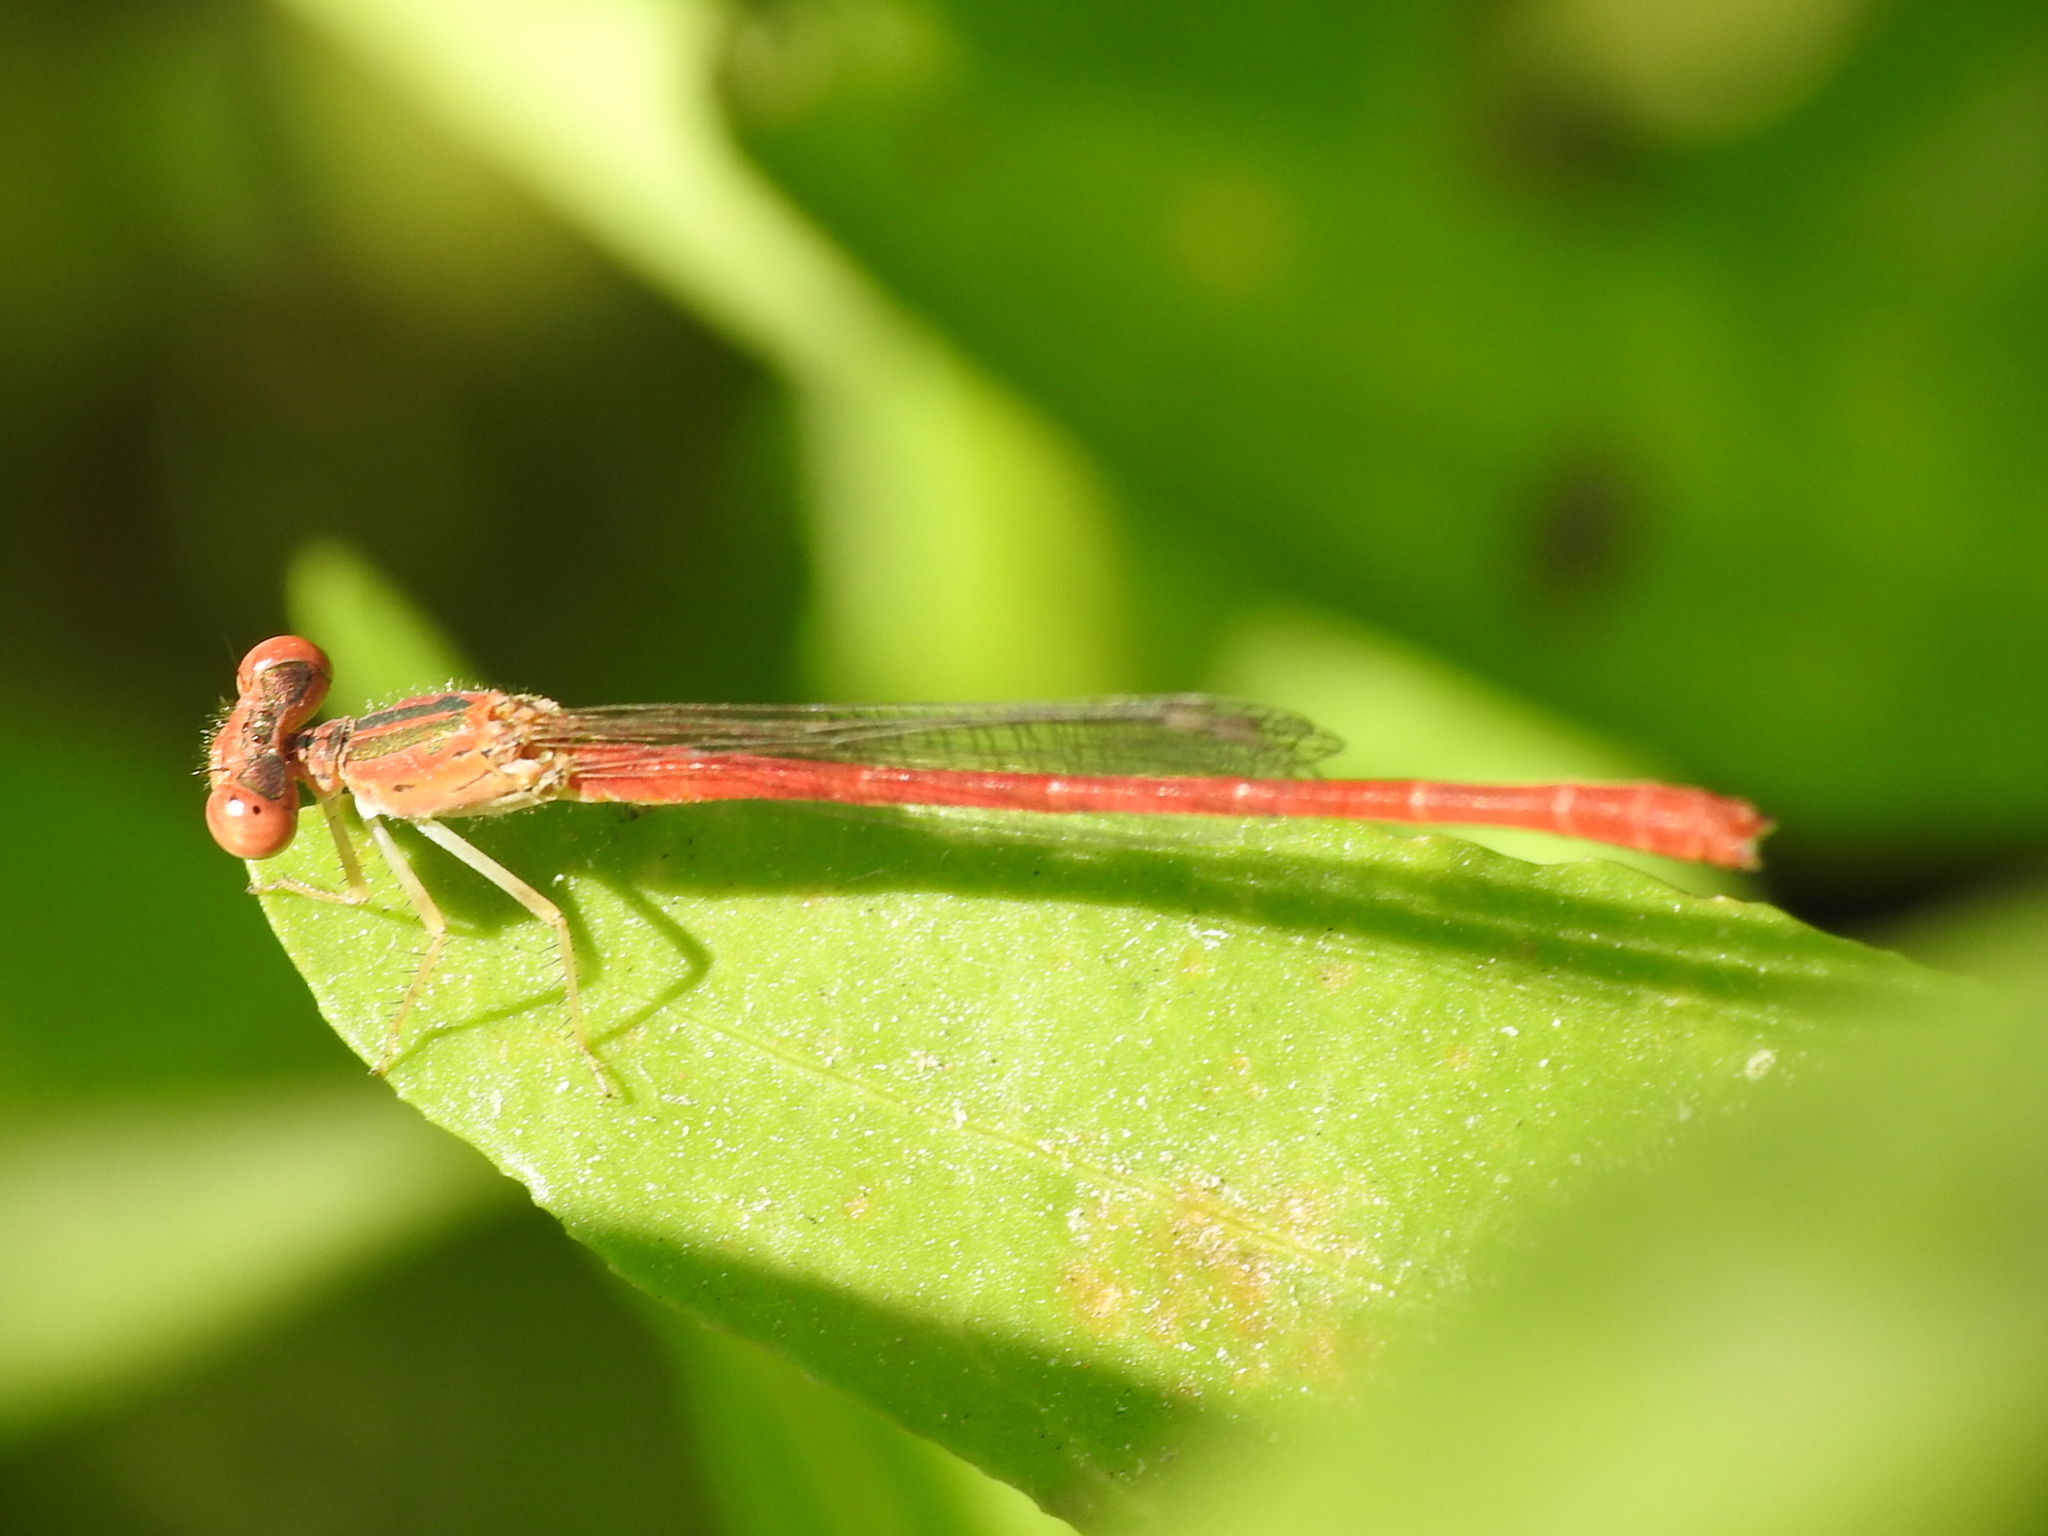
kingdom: Animalia
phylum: Arthropoda
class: Insecta
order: Odonata
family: Coenagrionidae
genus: Telebasis
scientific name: Telebasis salva
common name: Desert firetail
